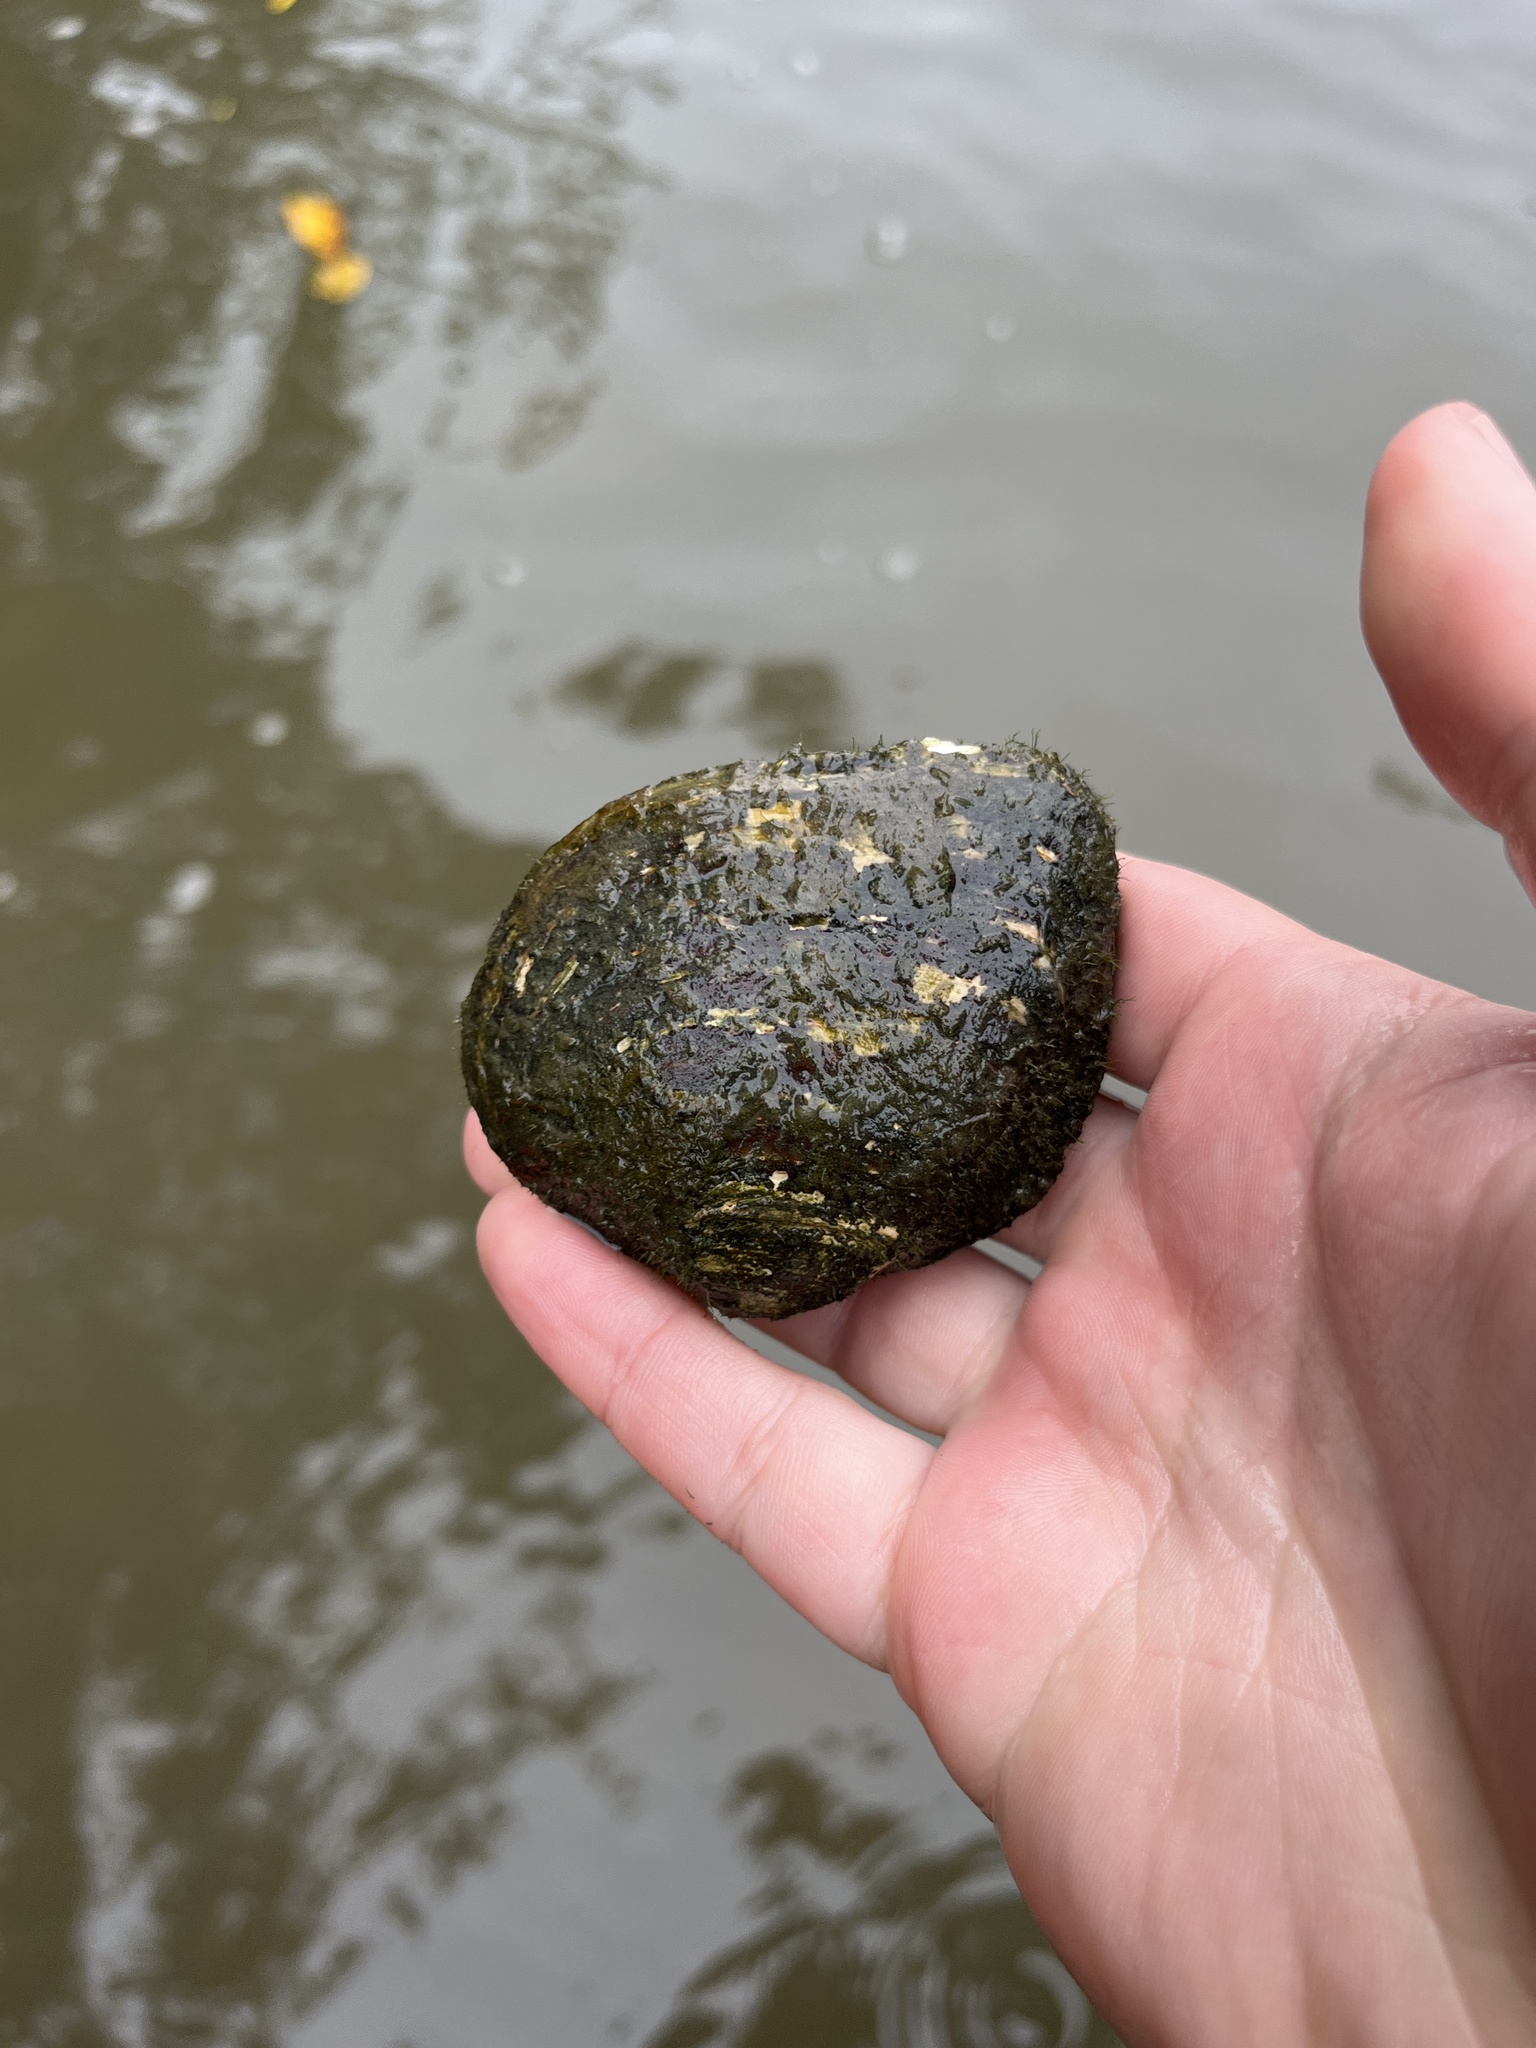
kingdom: Animalia
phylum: Mollusca
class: Bivalvia
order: Unionida
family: Unionidae
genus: Fusconaia
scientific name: Fusconaia flava
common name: Wabash pigtoe
